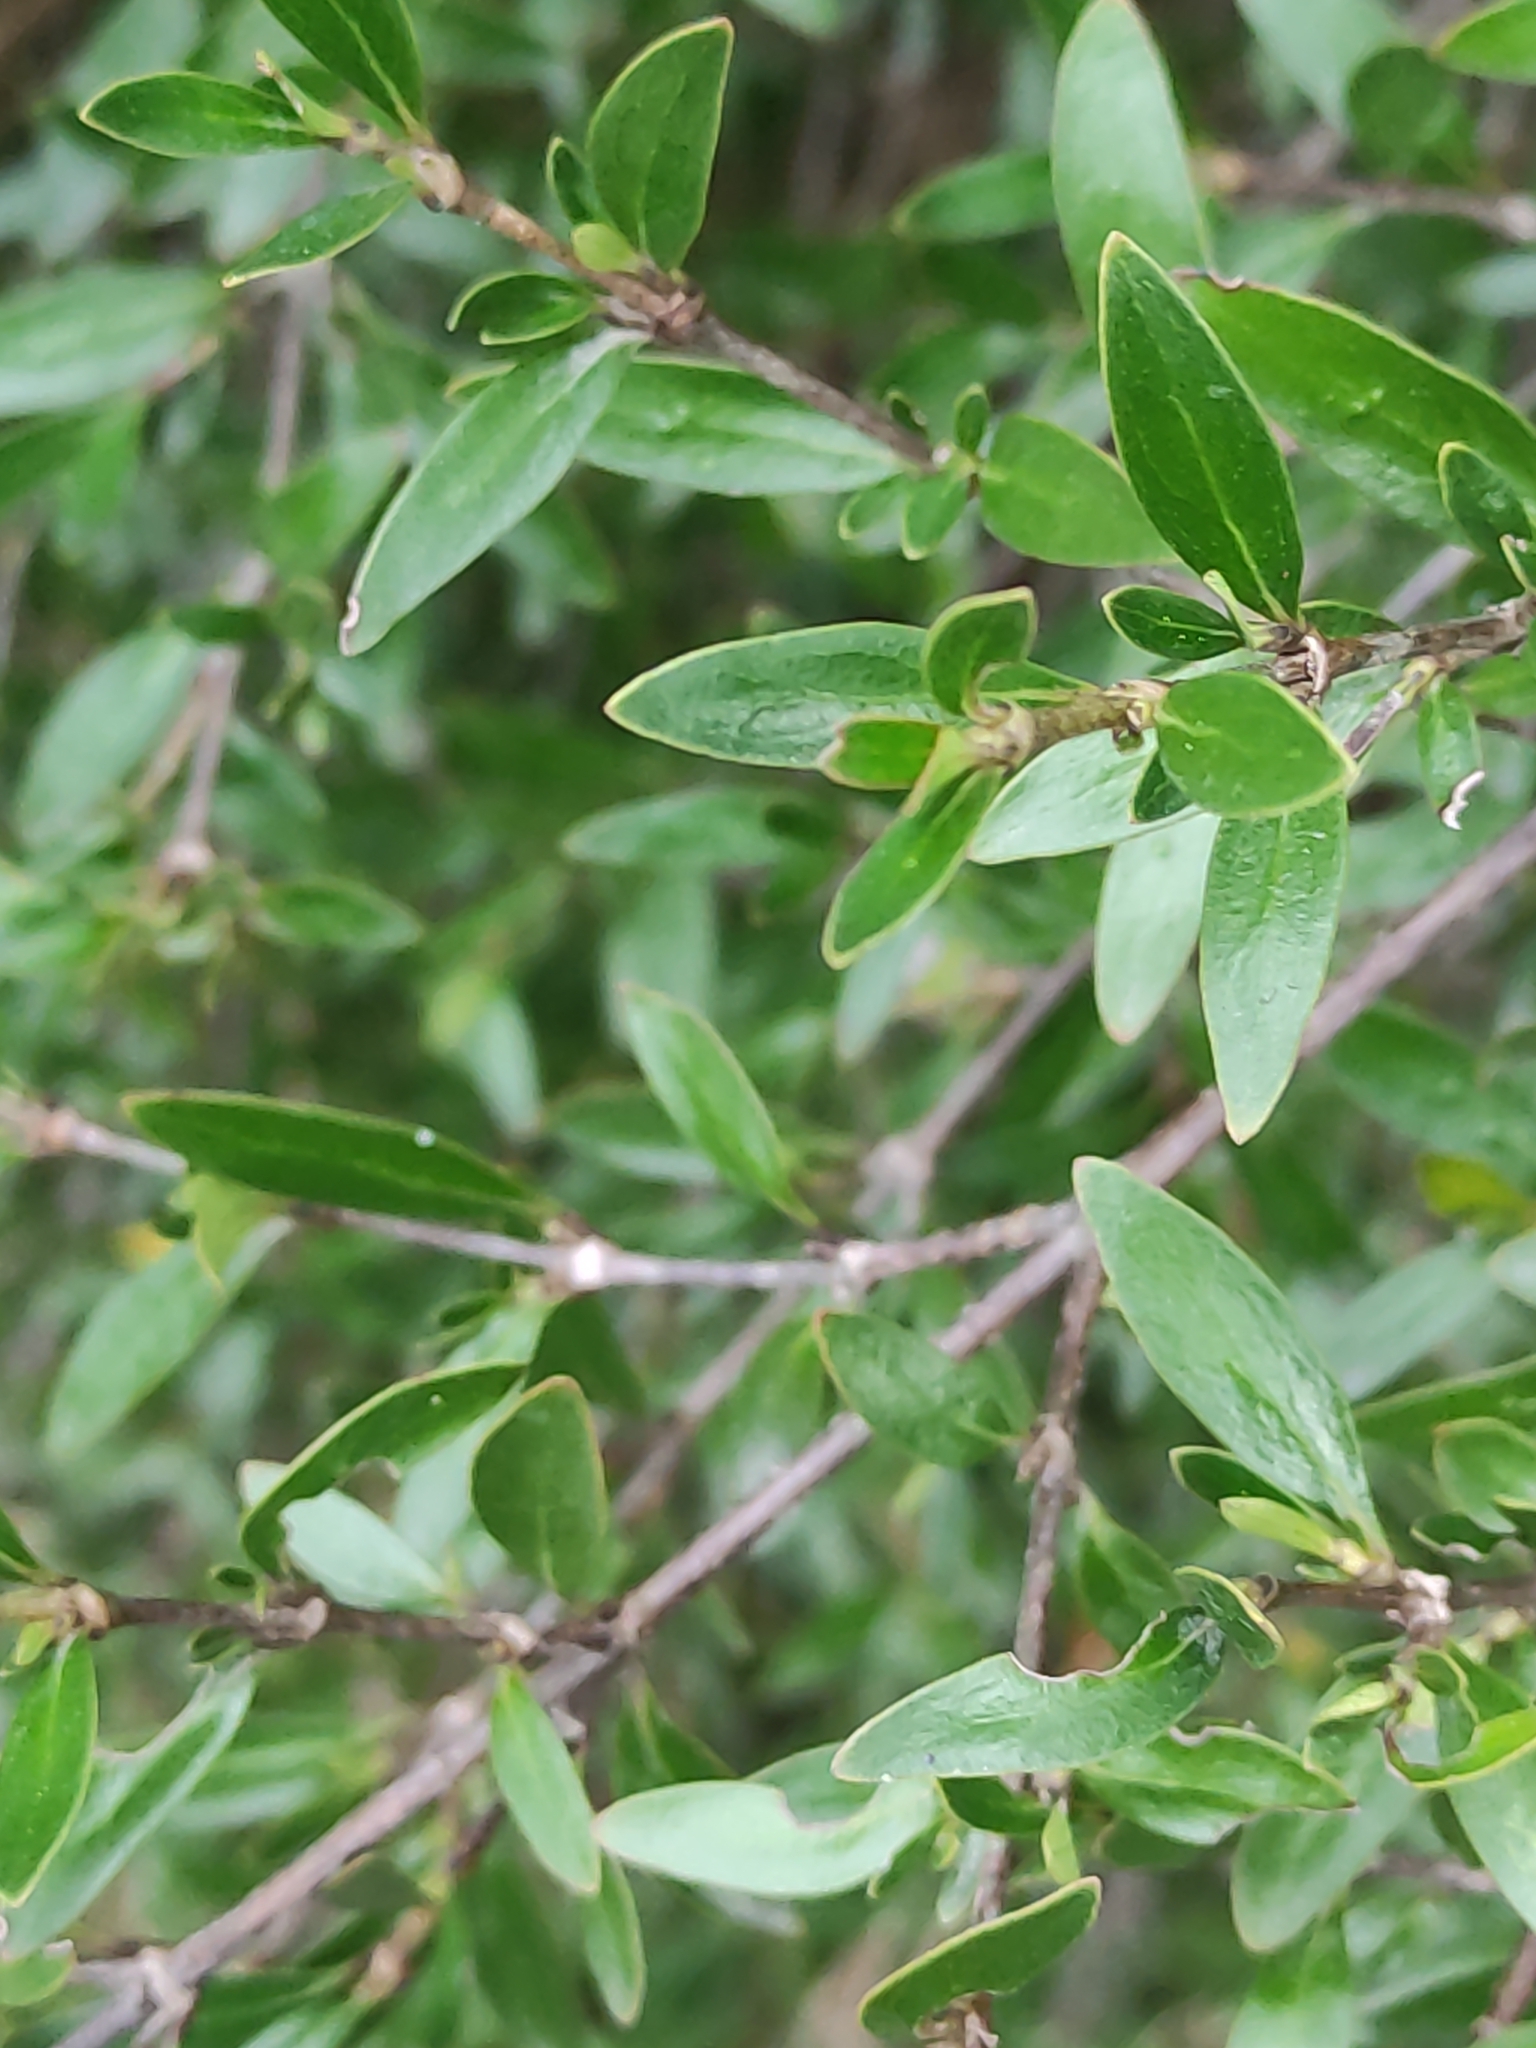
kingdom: Plantae
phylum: Tracheophyta
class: Magnoliopsida
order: Gentianales
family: Rubiaceae
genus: Coprosma
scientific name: Coprosma cunninghamii
